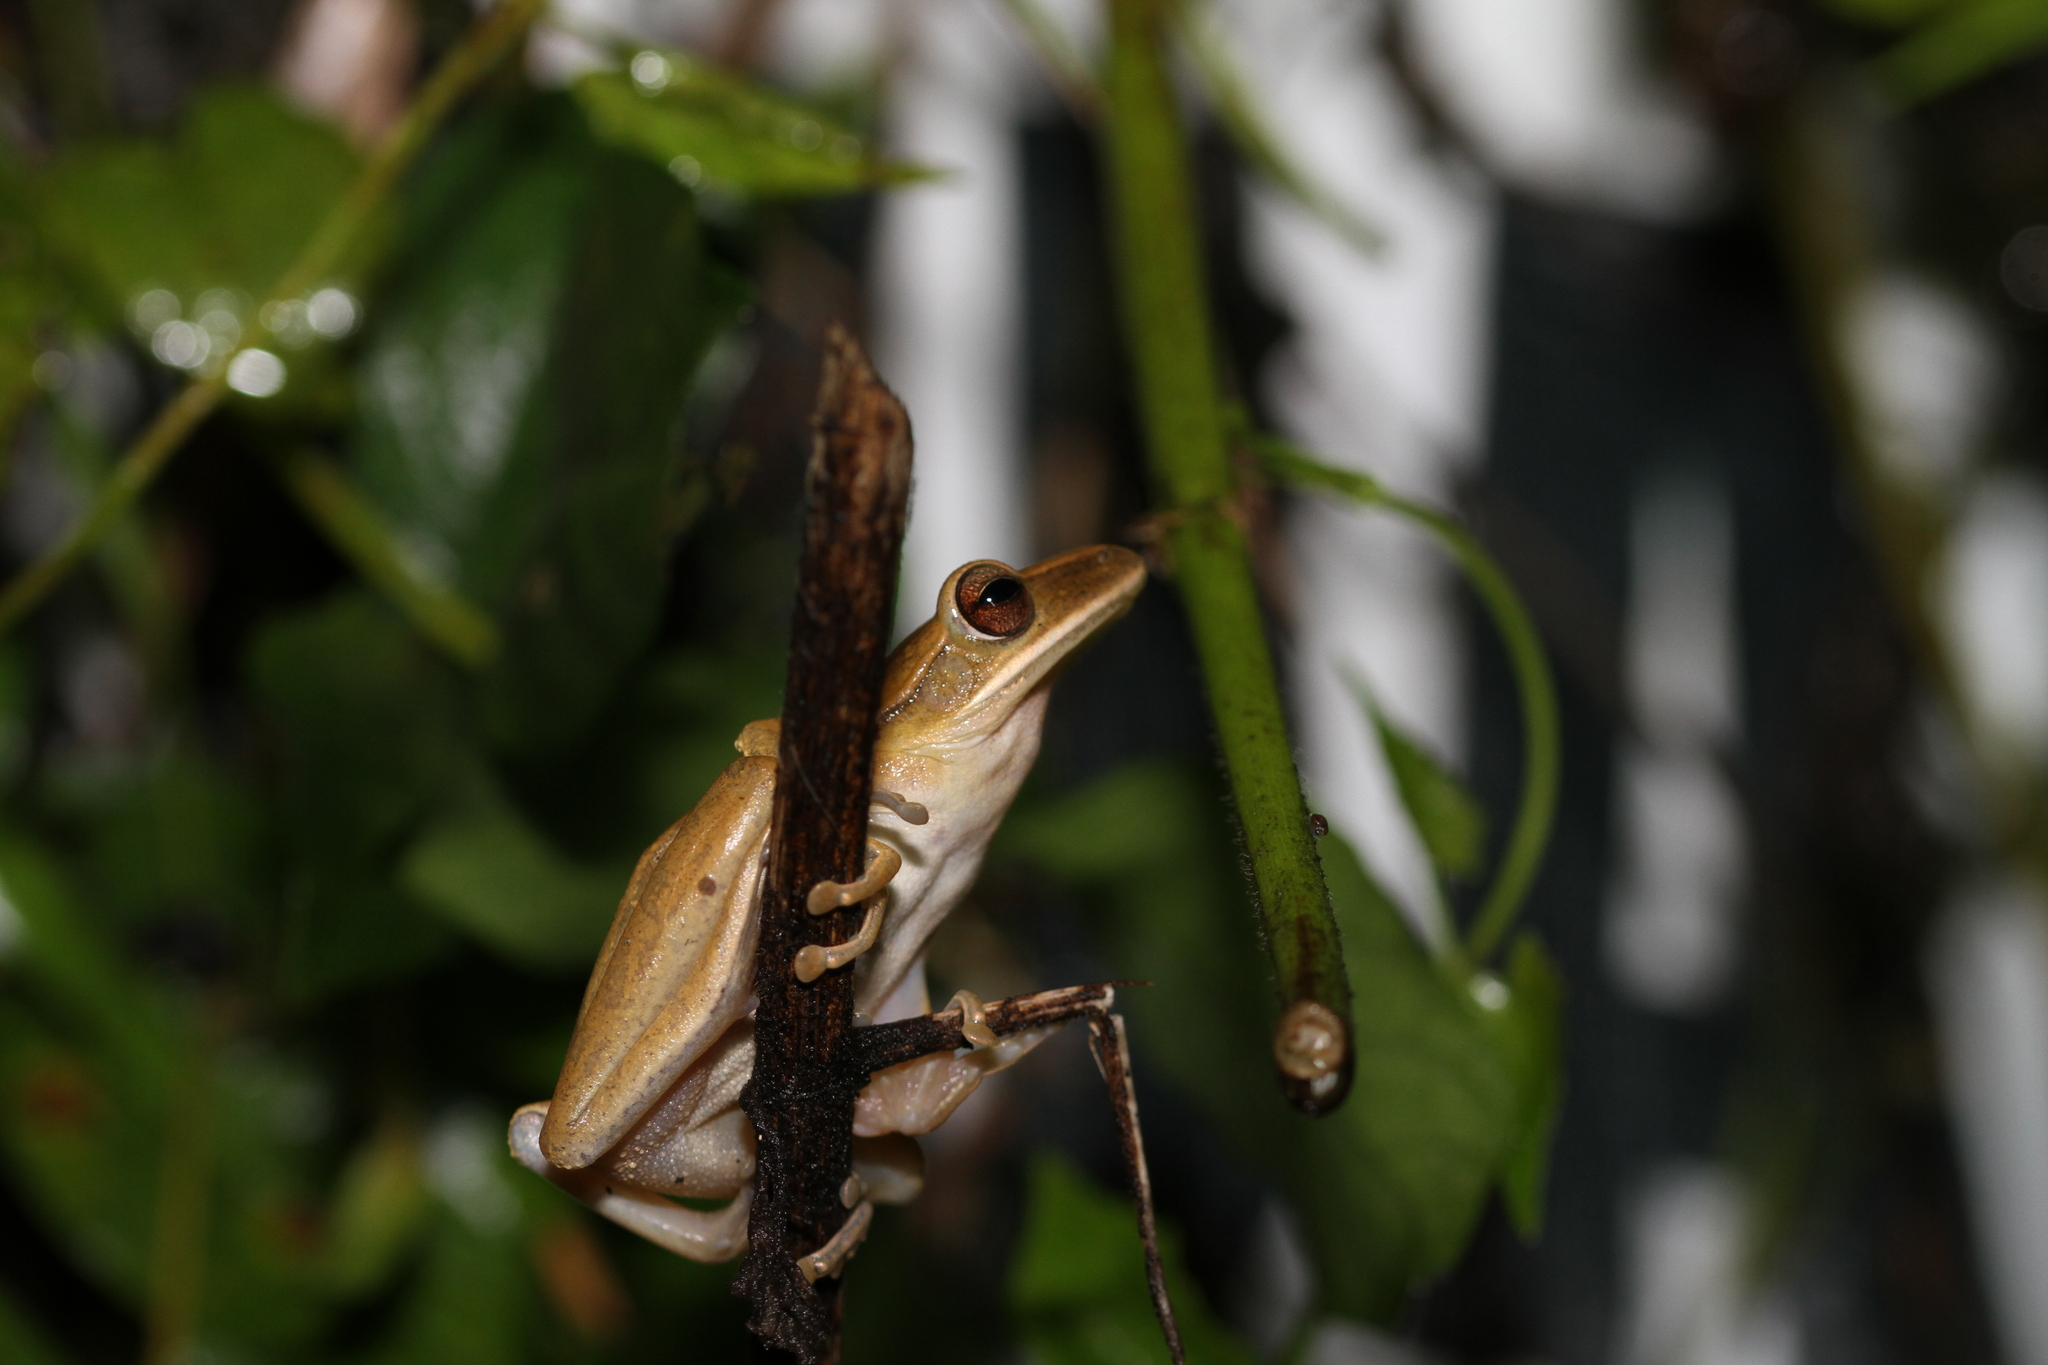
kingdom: Animalia
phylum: Chordata
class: Amphibia
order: Anura
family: Rhacophoridae
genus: Polypedates
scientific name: Polypedates leucomystax
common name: Common tree frog/four-lined tree frog
